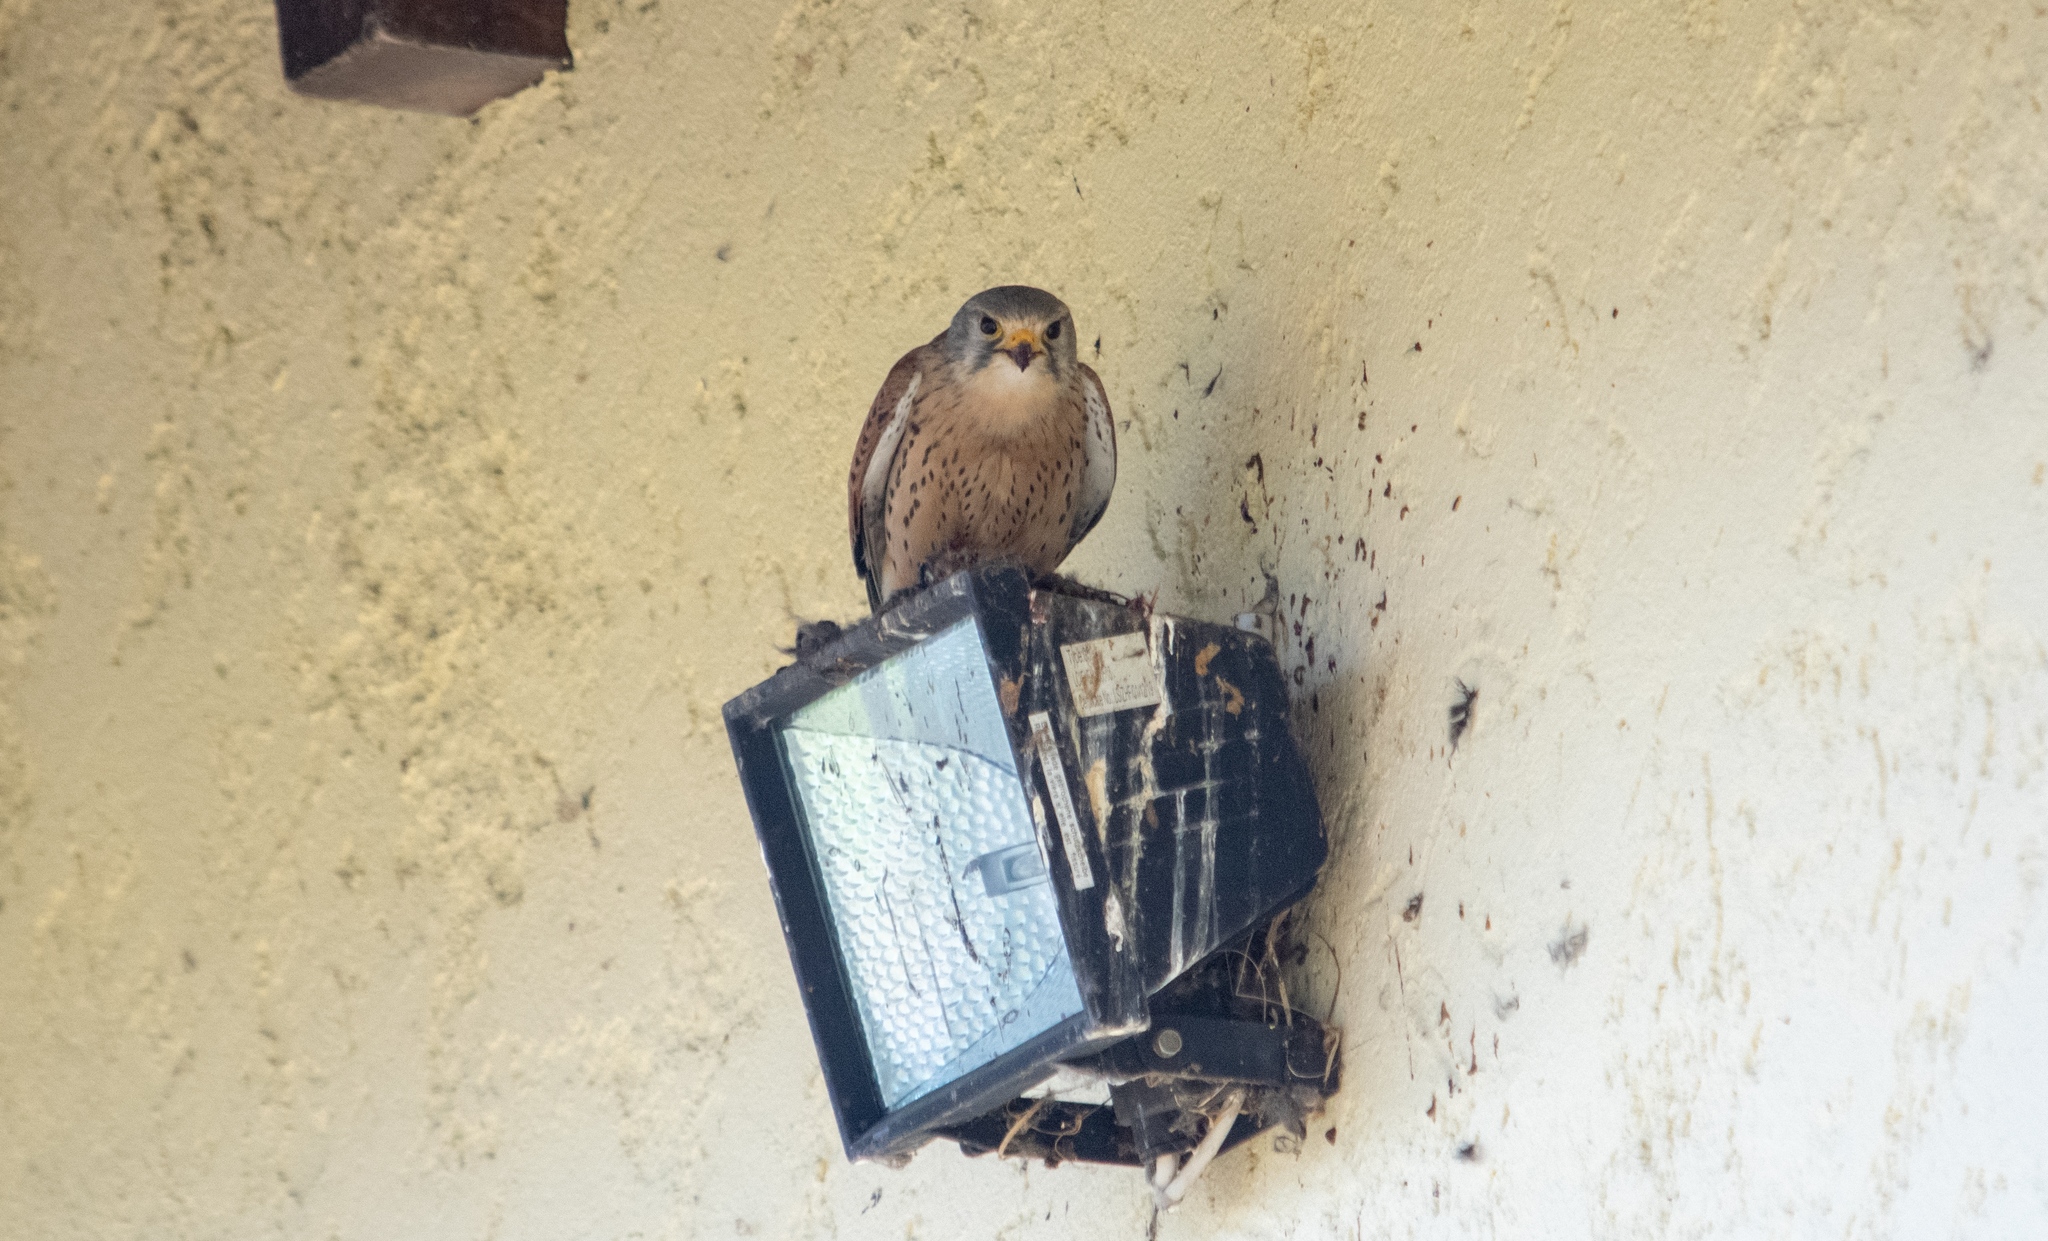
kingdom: Animalia
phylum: Chordata
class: Aves
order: Falconiformes
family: Falconidae
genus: Falco
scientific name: Falco tinnunculus
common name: Common kestrel
